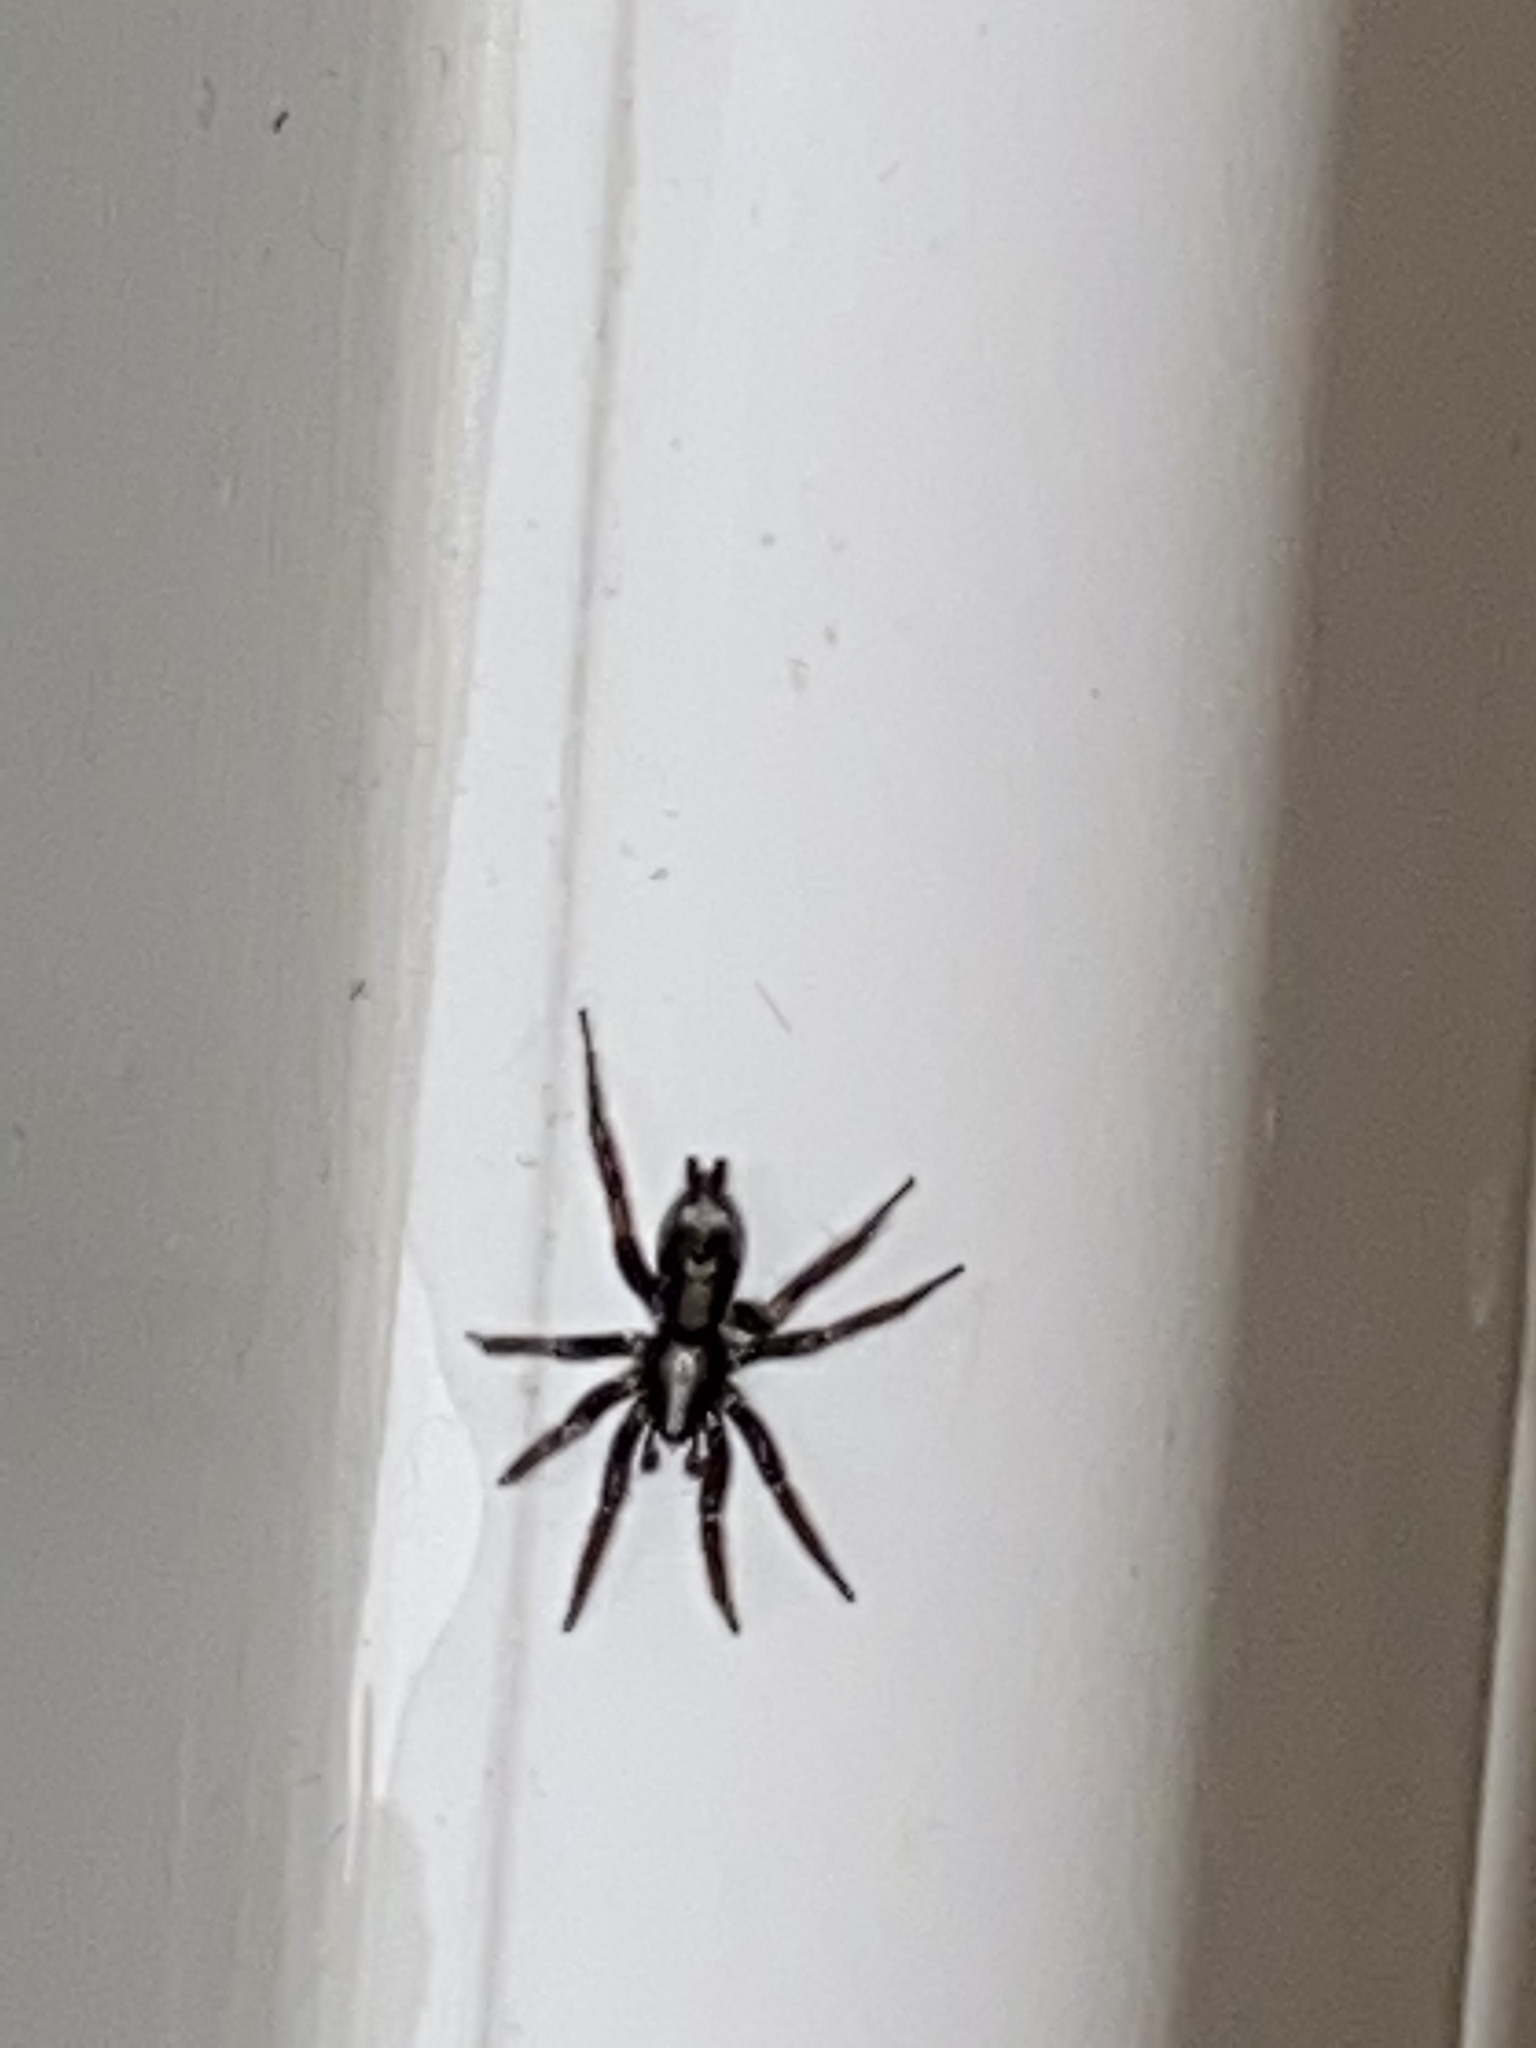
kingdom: Animalia
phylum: Arthropoda
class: Arachnida
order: Araneae
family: Gnaphosidae
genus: Herpyllus
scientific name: Herpyllus ecclesiasticus
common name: Eastern parson spider
